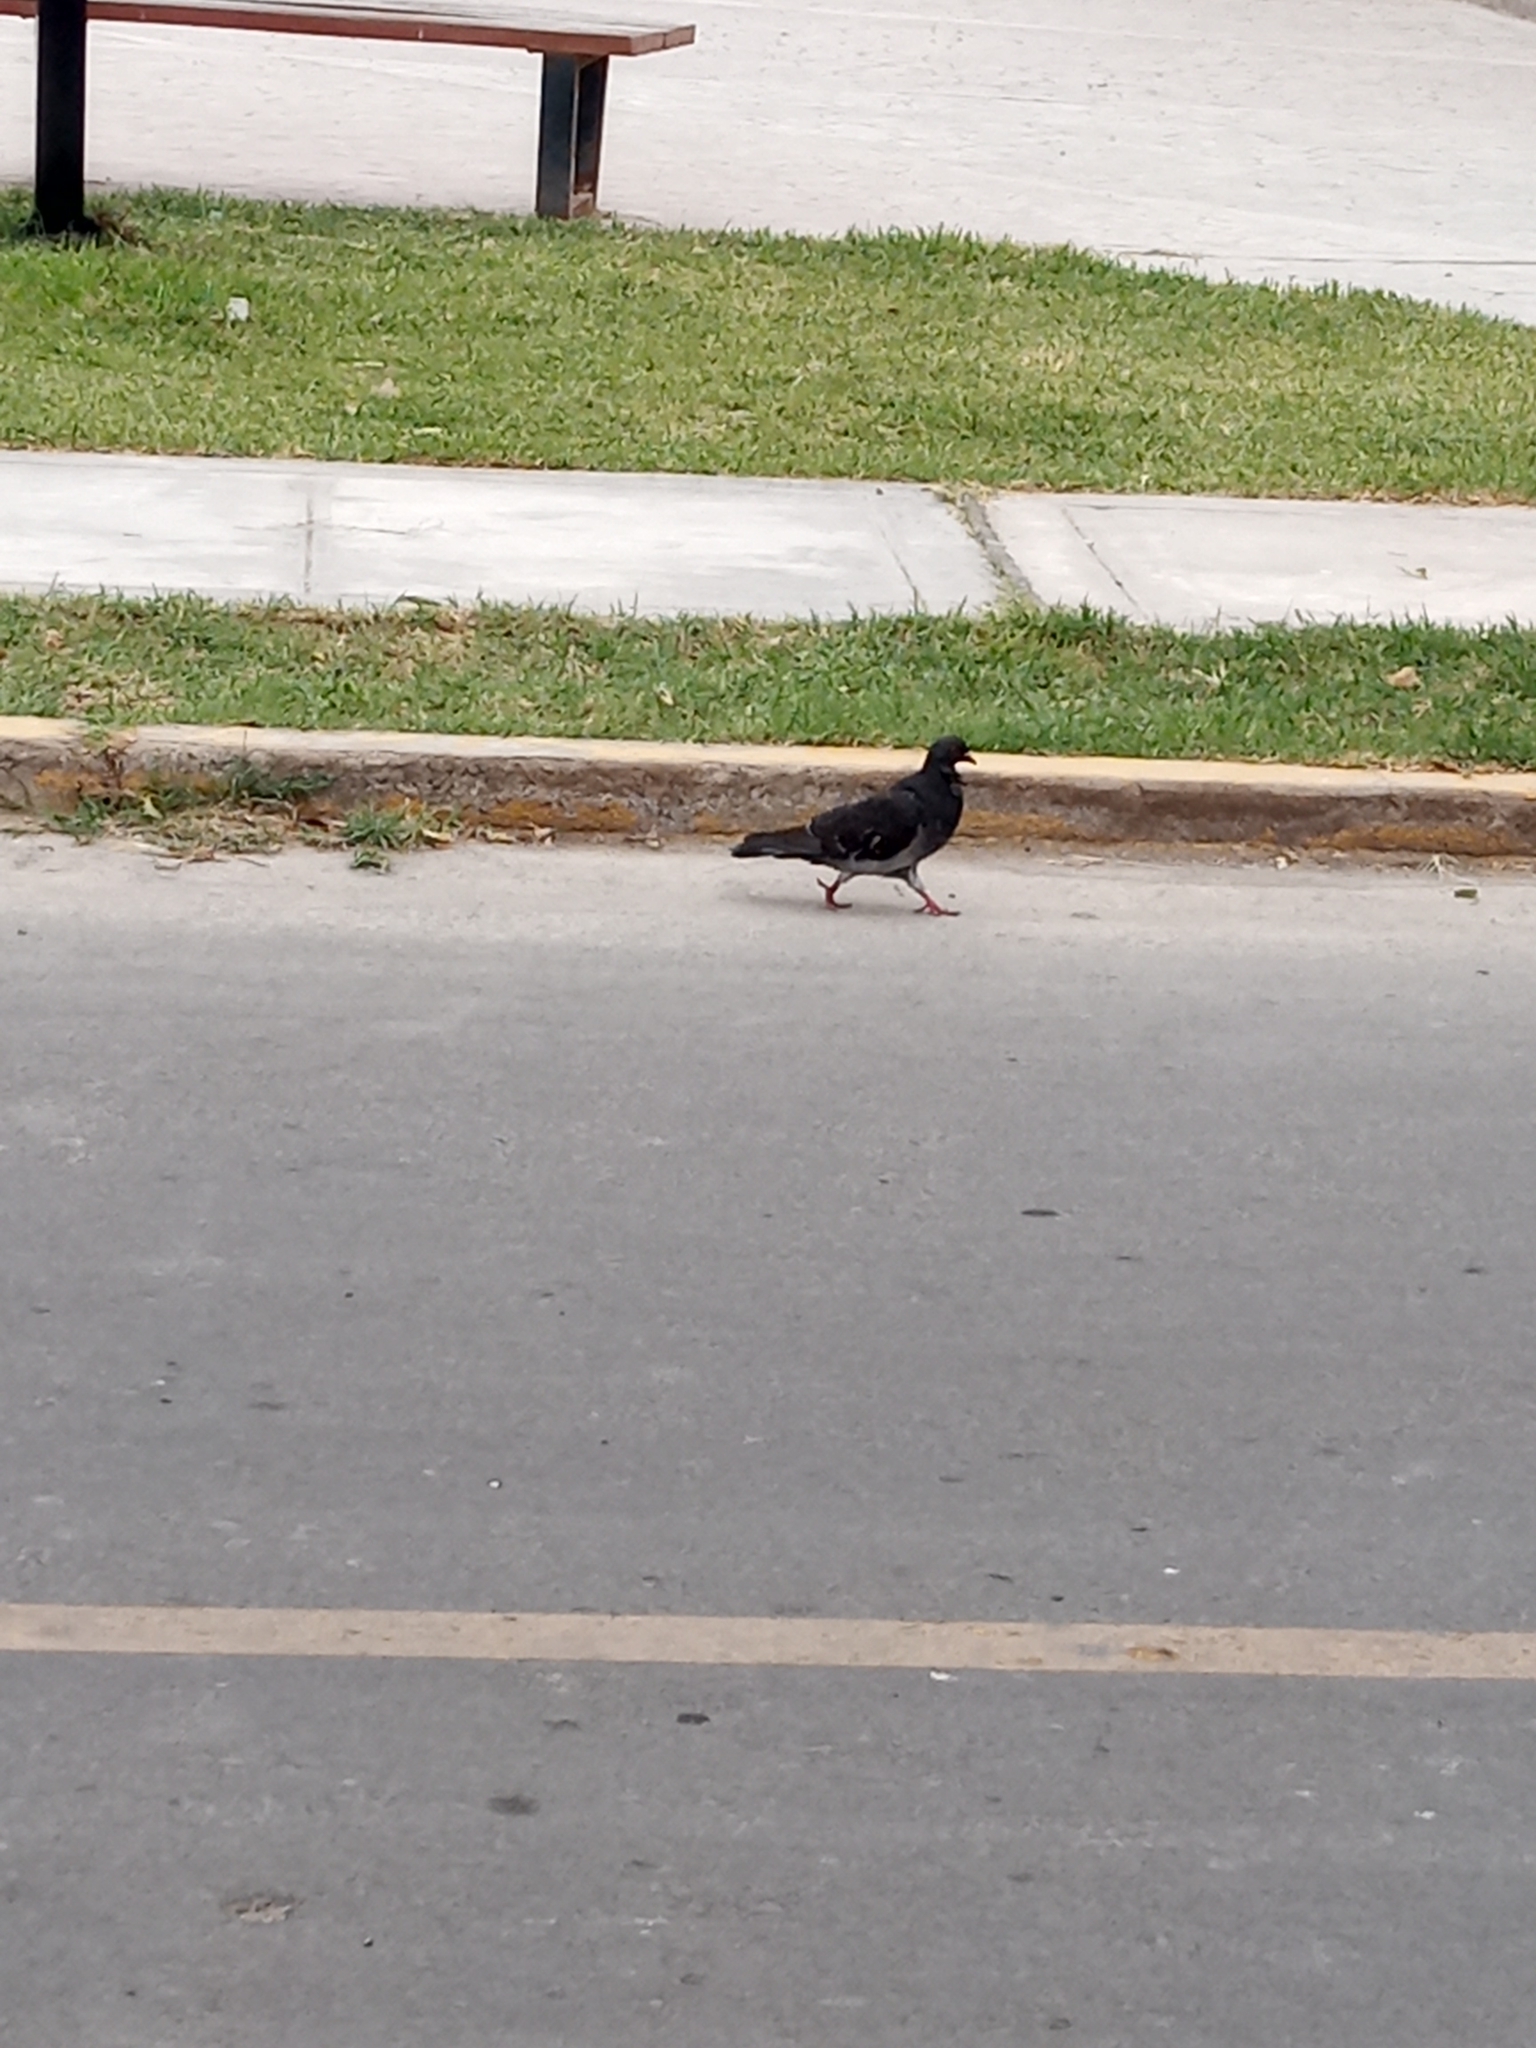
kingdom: Animalia
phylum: Chordata
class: Aves
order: Columbiformes
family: Columbidae
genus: Columba
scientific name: Columba livia
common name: Rock pigeon
